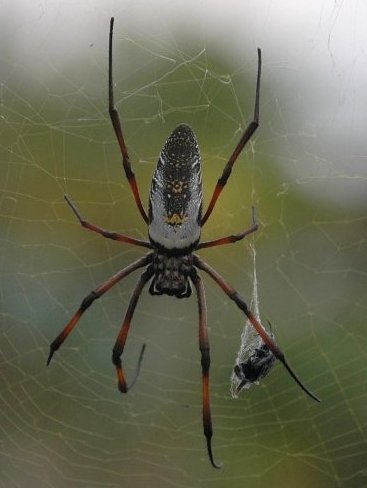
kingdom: Animalia
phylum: Arthropoda
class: Arachnida
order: Araneae
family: Araneidae
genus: Trichonephila
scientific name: Trichonephila inaurata
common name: Red-legged golden orb weaver
